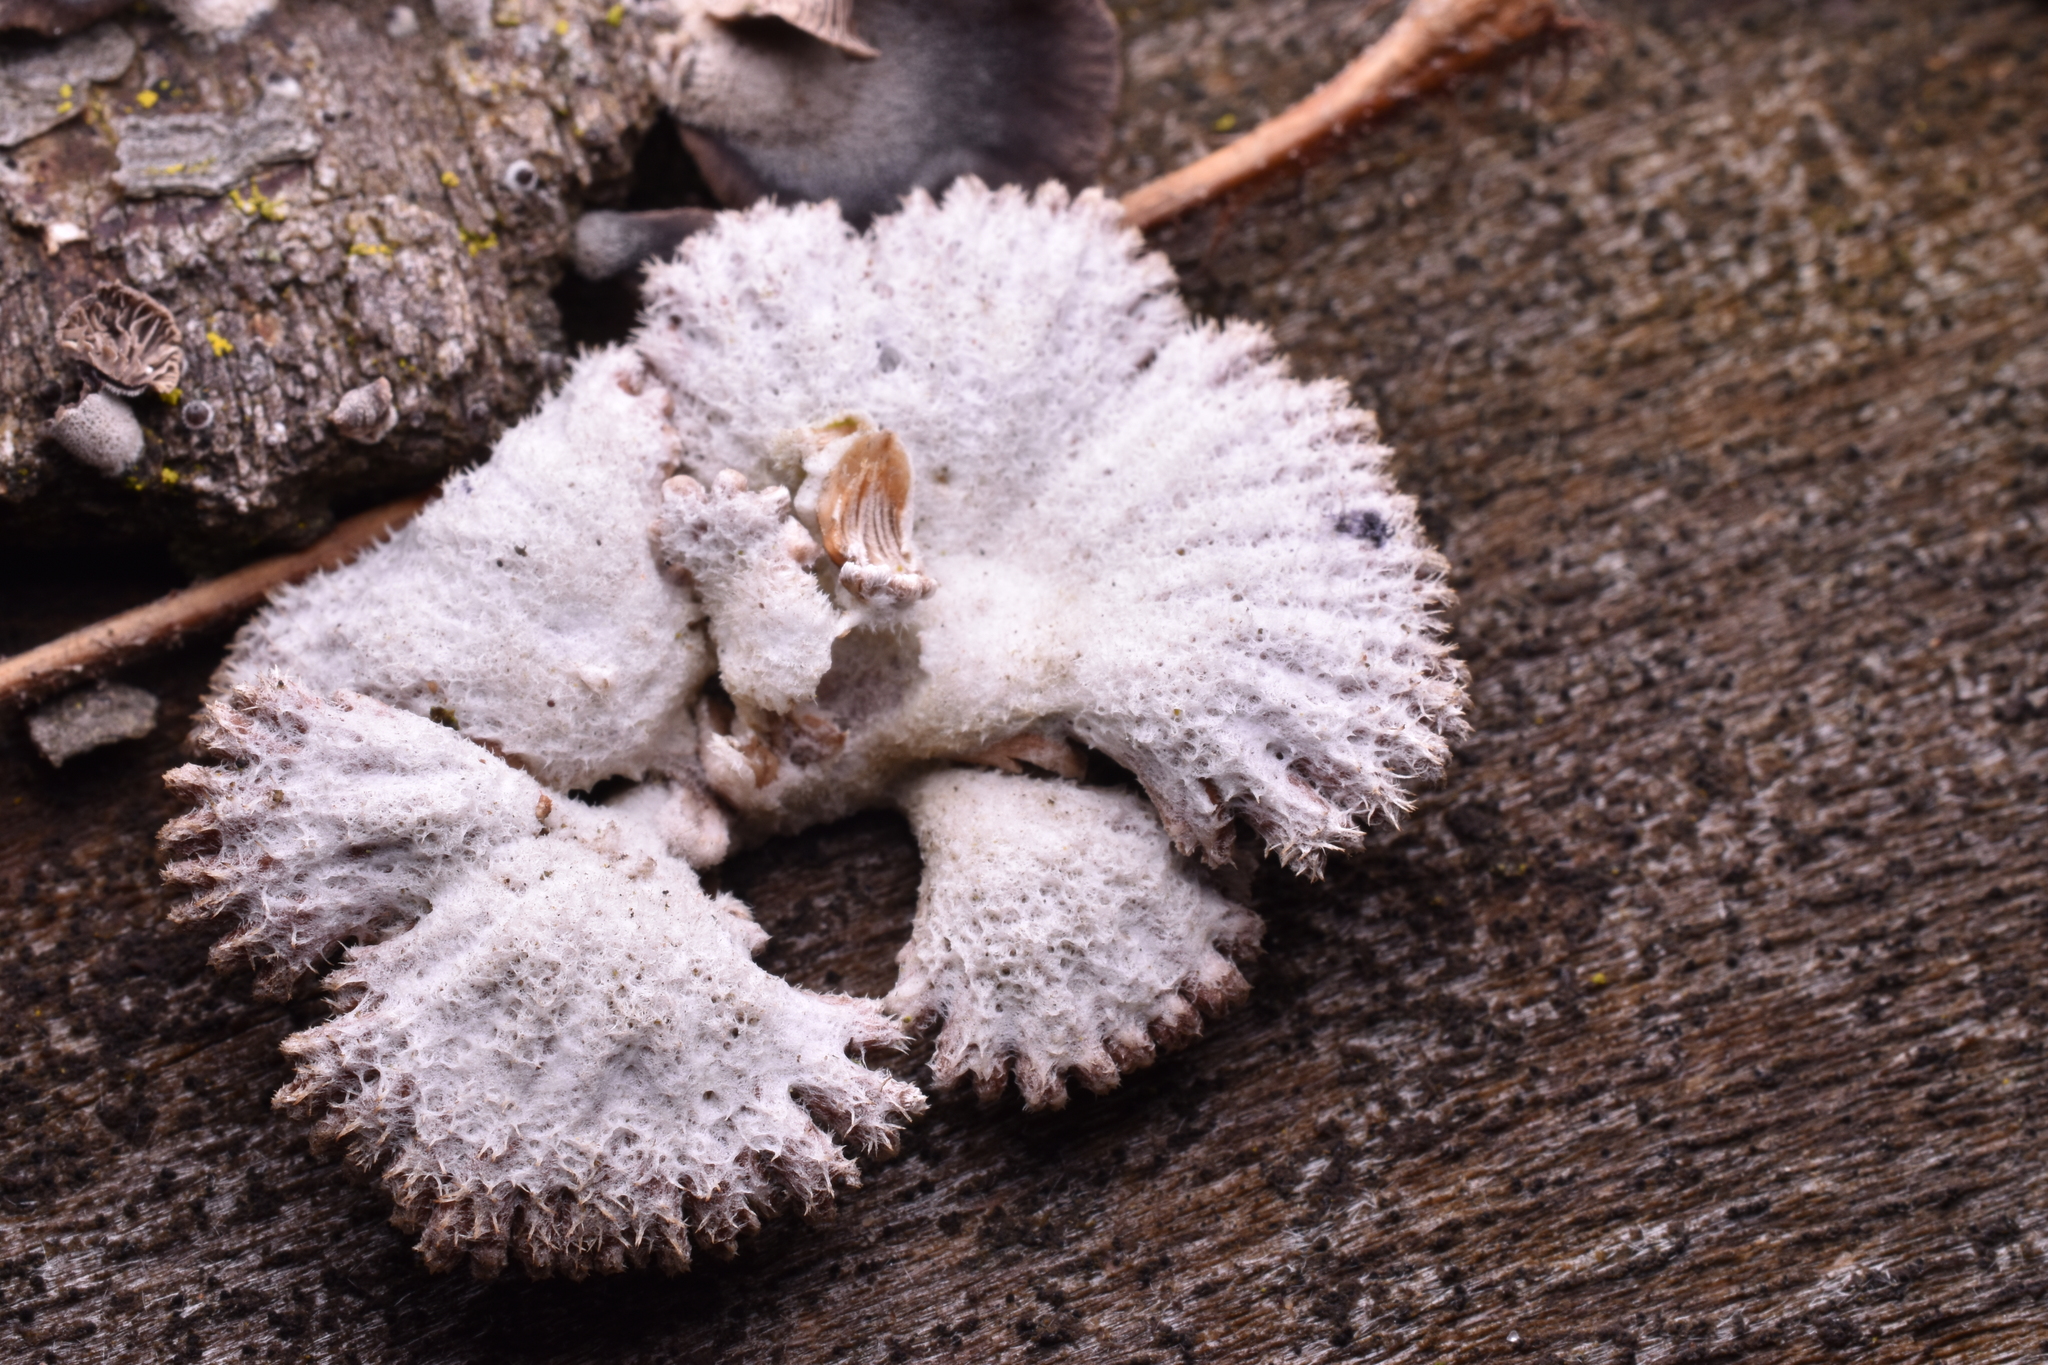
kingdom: Fungi
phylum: Basidiomycota
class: Agaricomycetes
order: Agaricales
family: Schizophyllaceae
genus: Schizophyllum
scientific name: Schizophyllum commune
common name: Common porecrust
